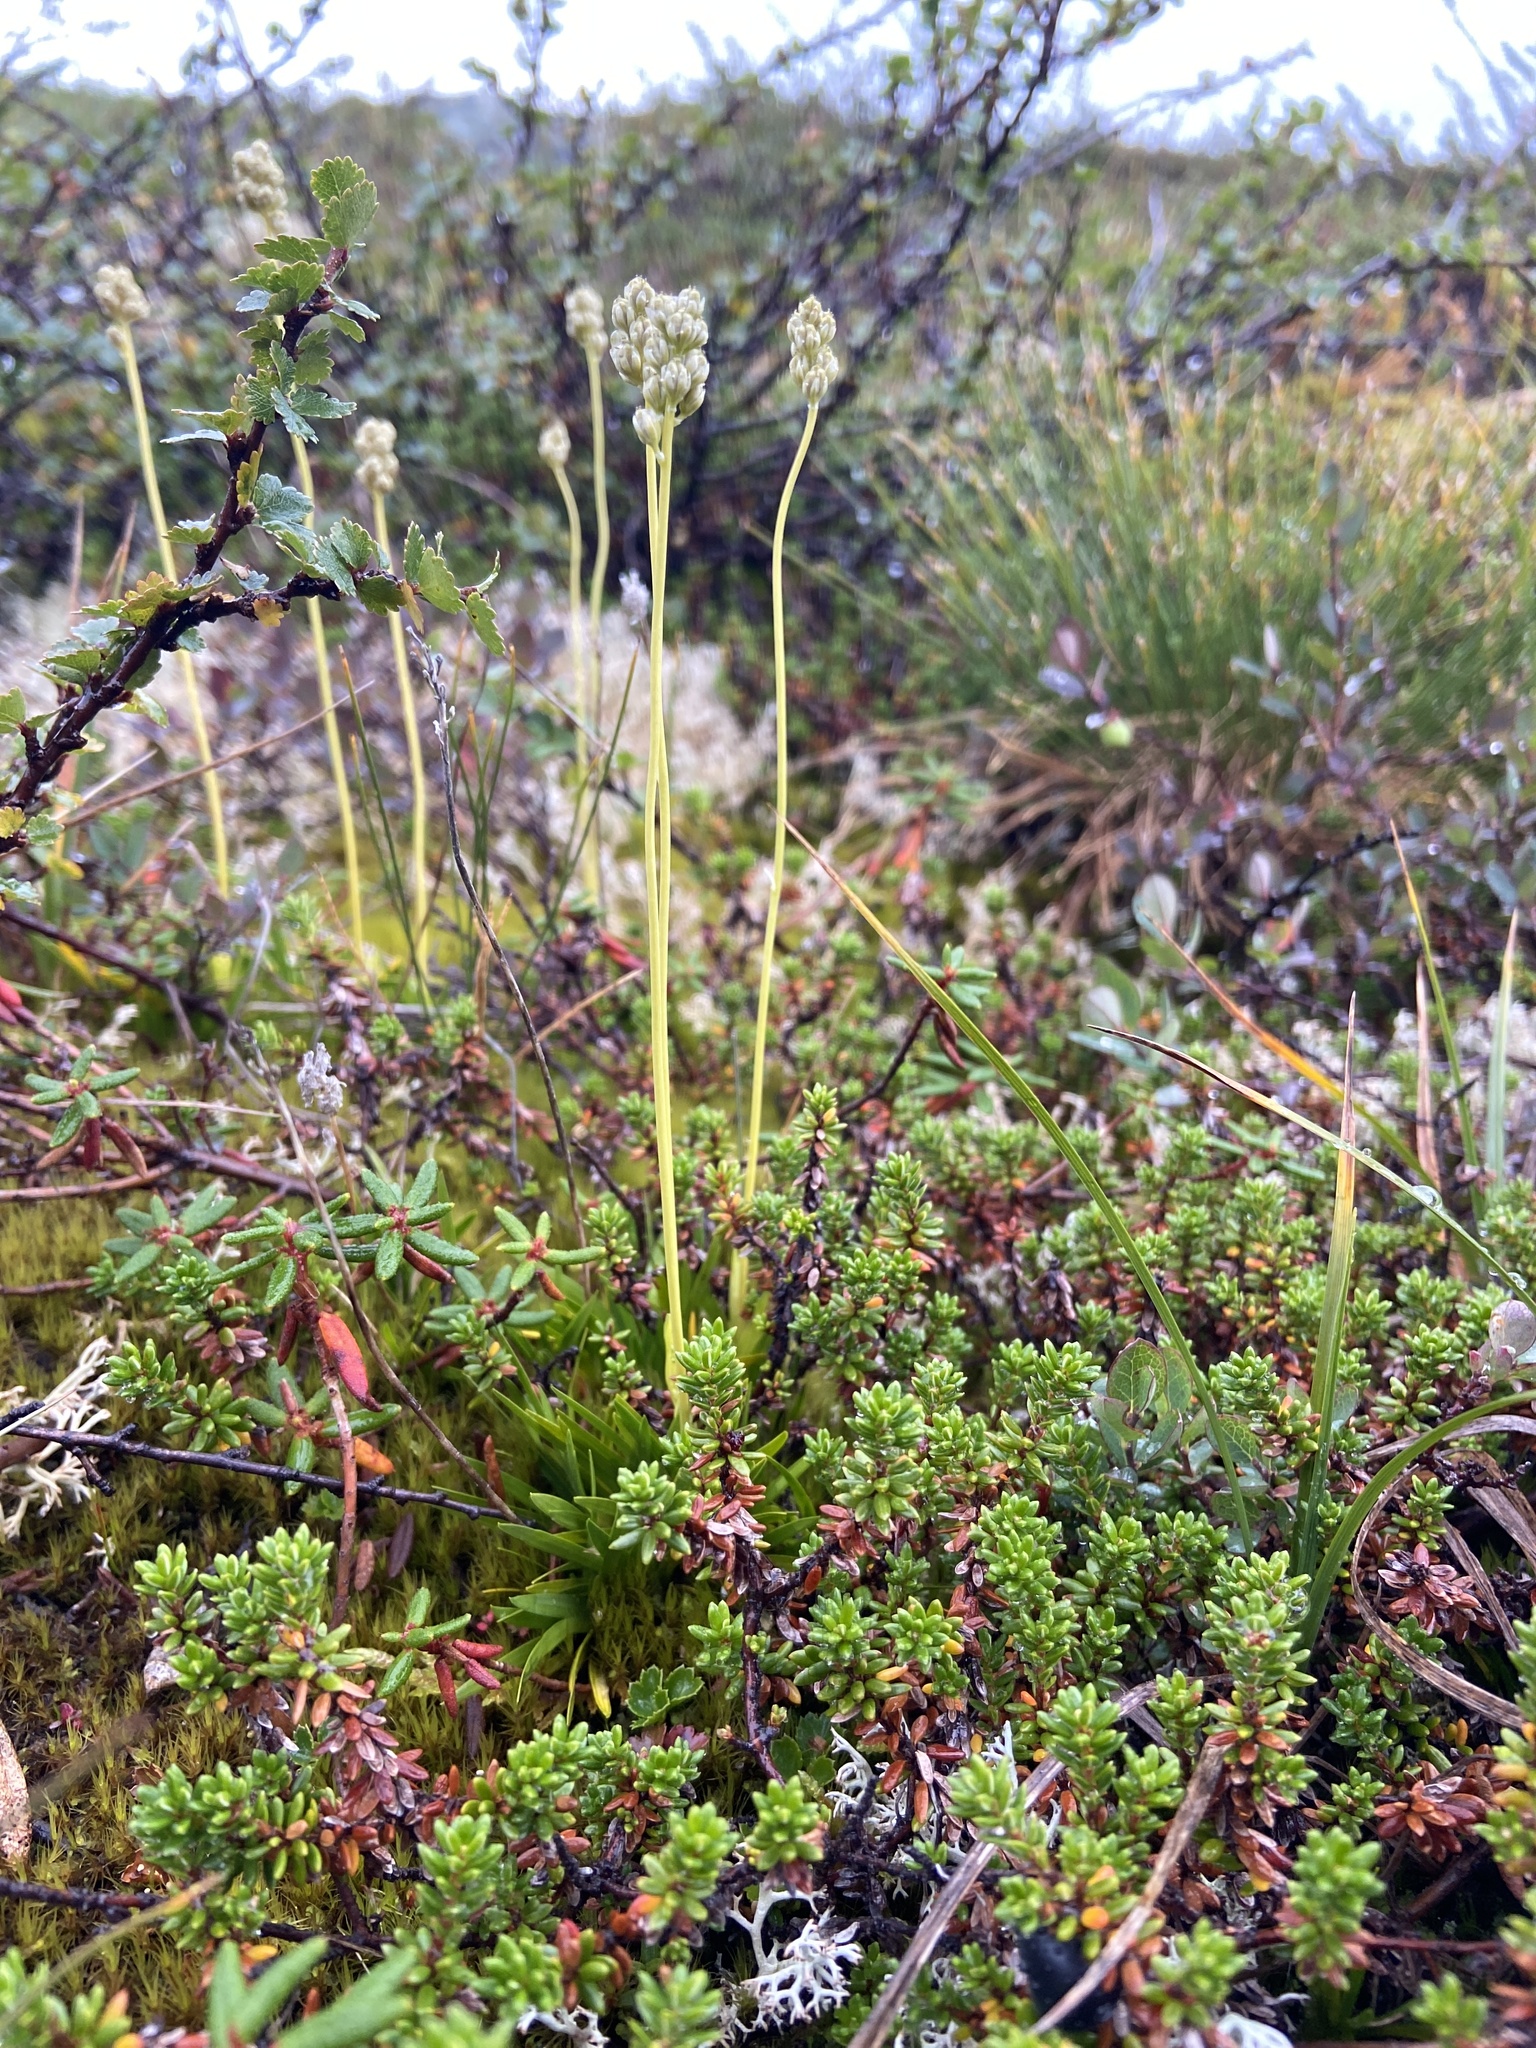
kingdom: Plantae
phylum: Tracheophyta
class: Liliopsida
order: Alismatales
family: Tofieldiaceae
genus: Tofieldia
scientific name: Tofieldia pusilla
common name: Scottish false asphodel
